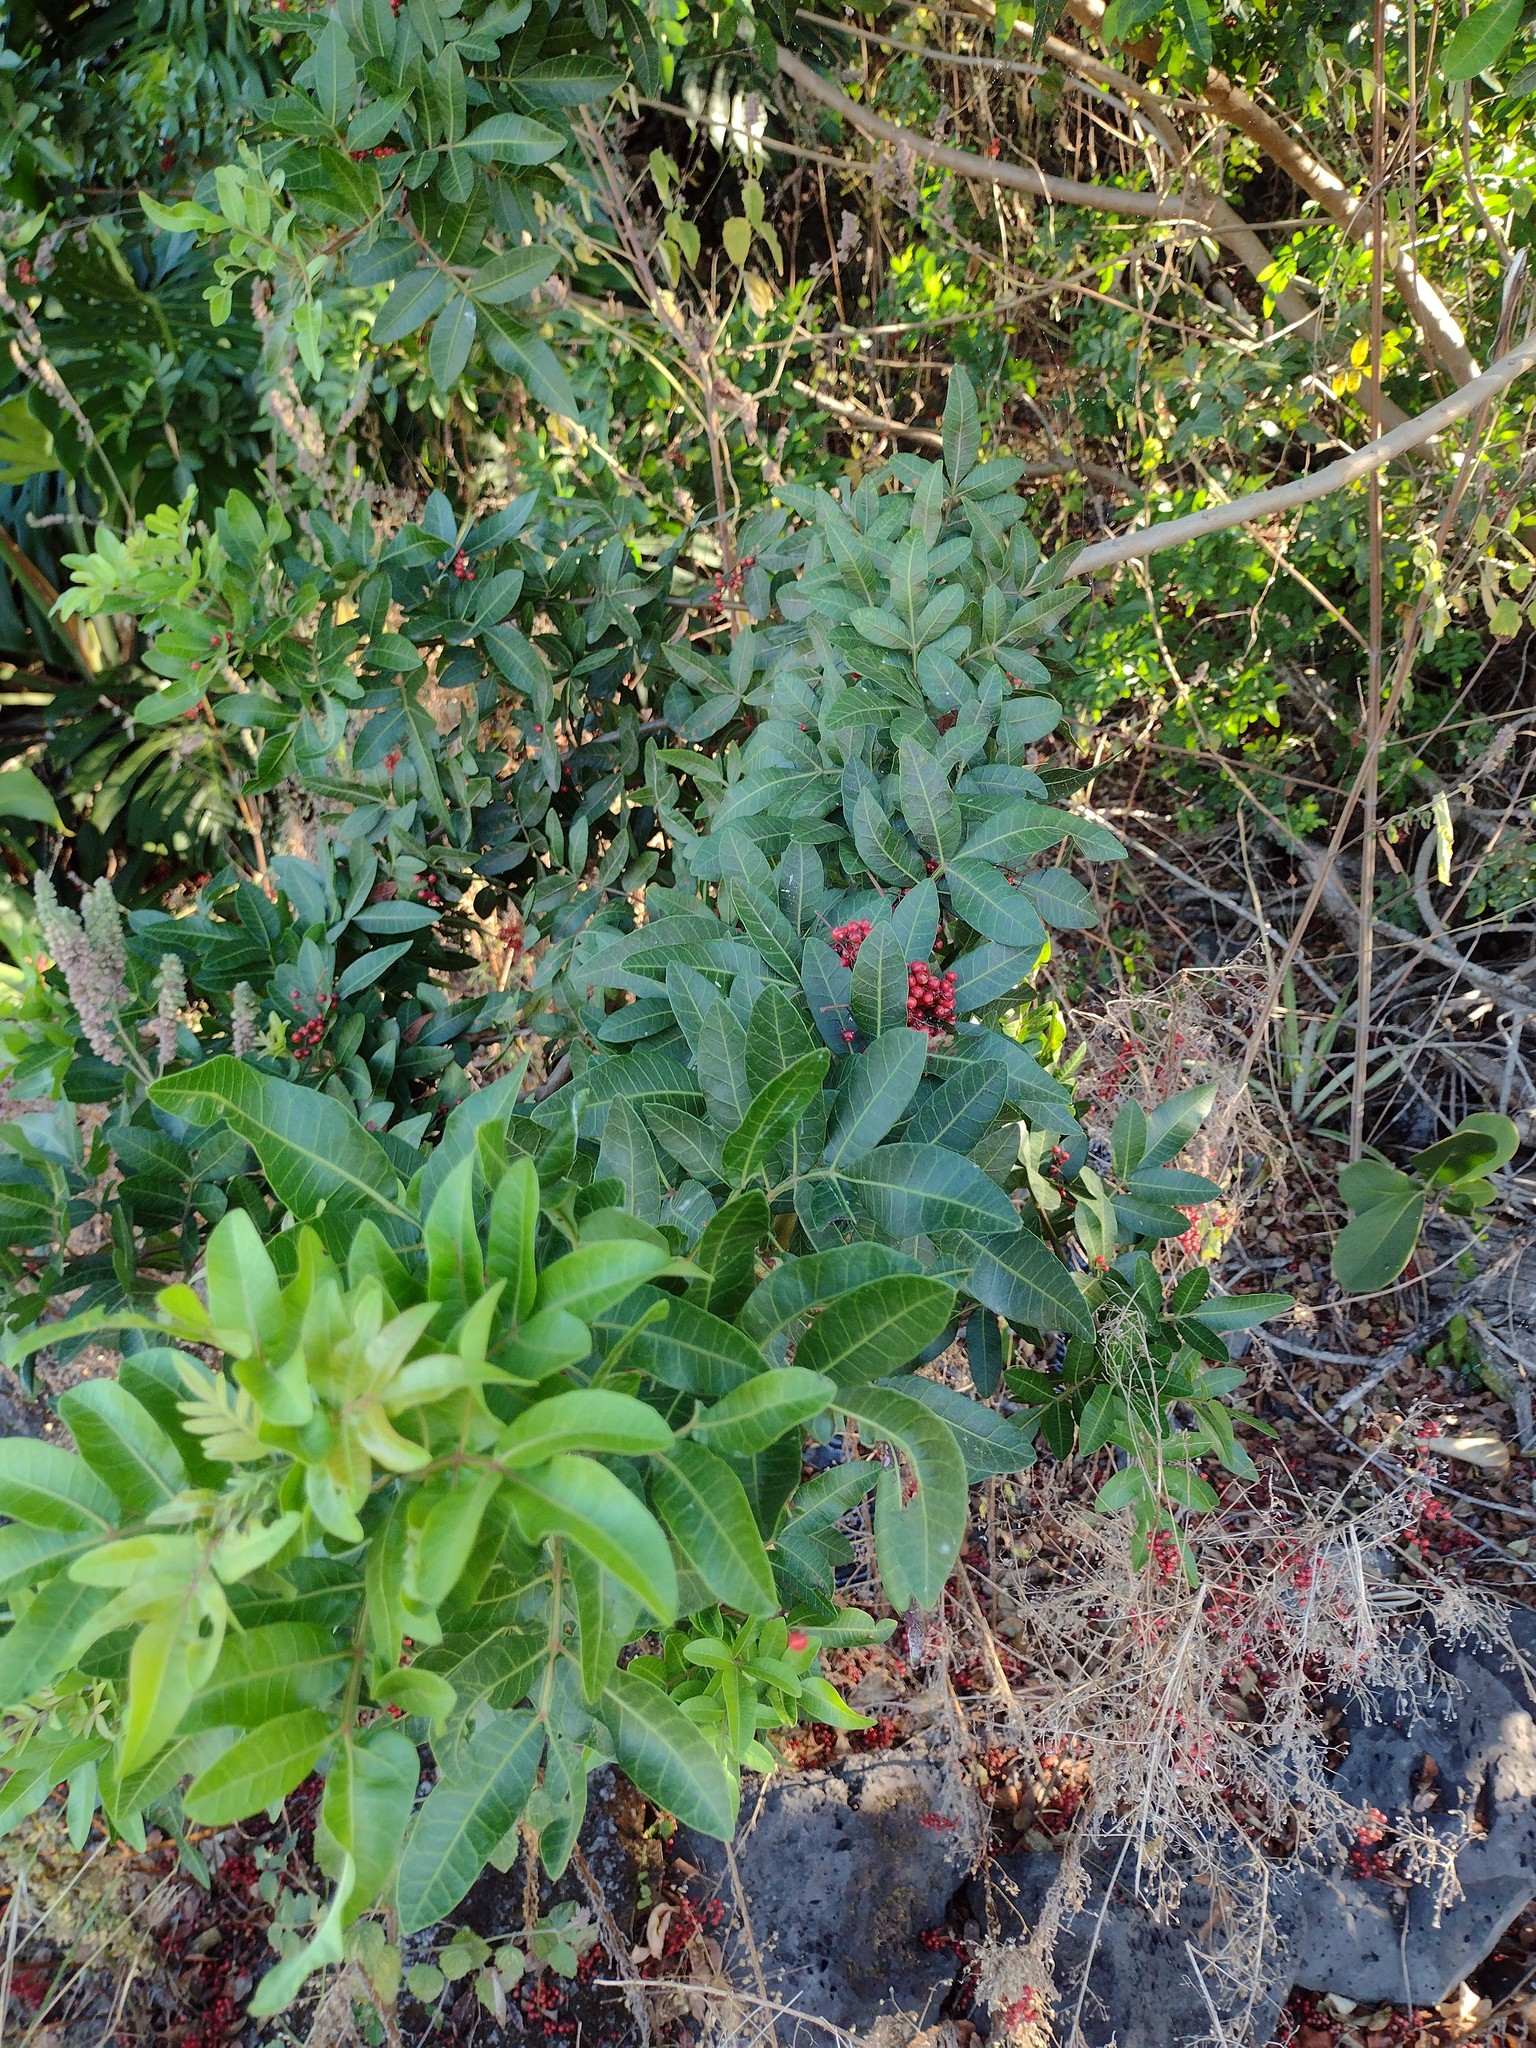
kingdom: Plantae
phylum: Tracheophyta
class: Magnoliopsida
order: Sapindales
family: Anacardiaceae
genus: Schinus
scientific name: Schinus terebinthifolia
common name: Brazilian peppertree
